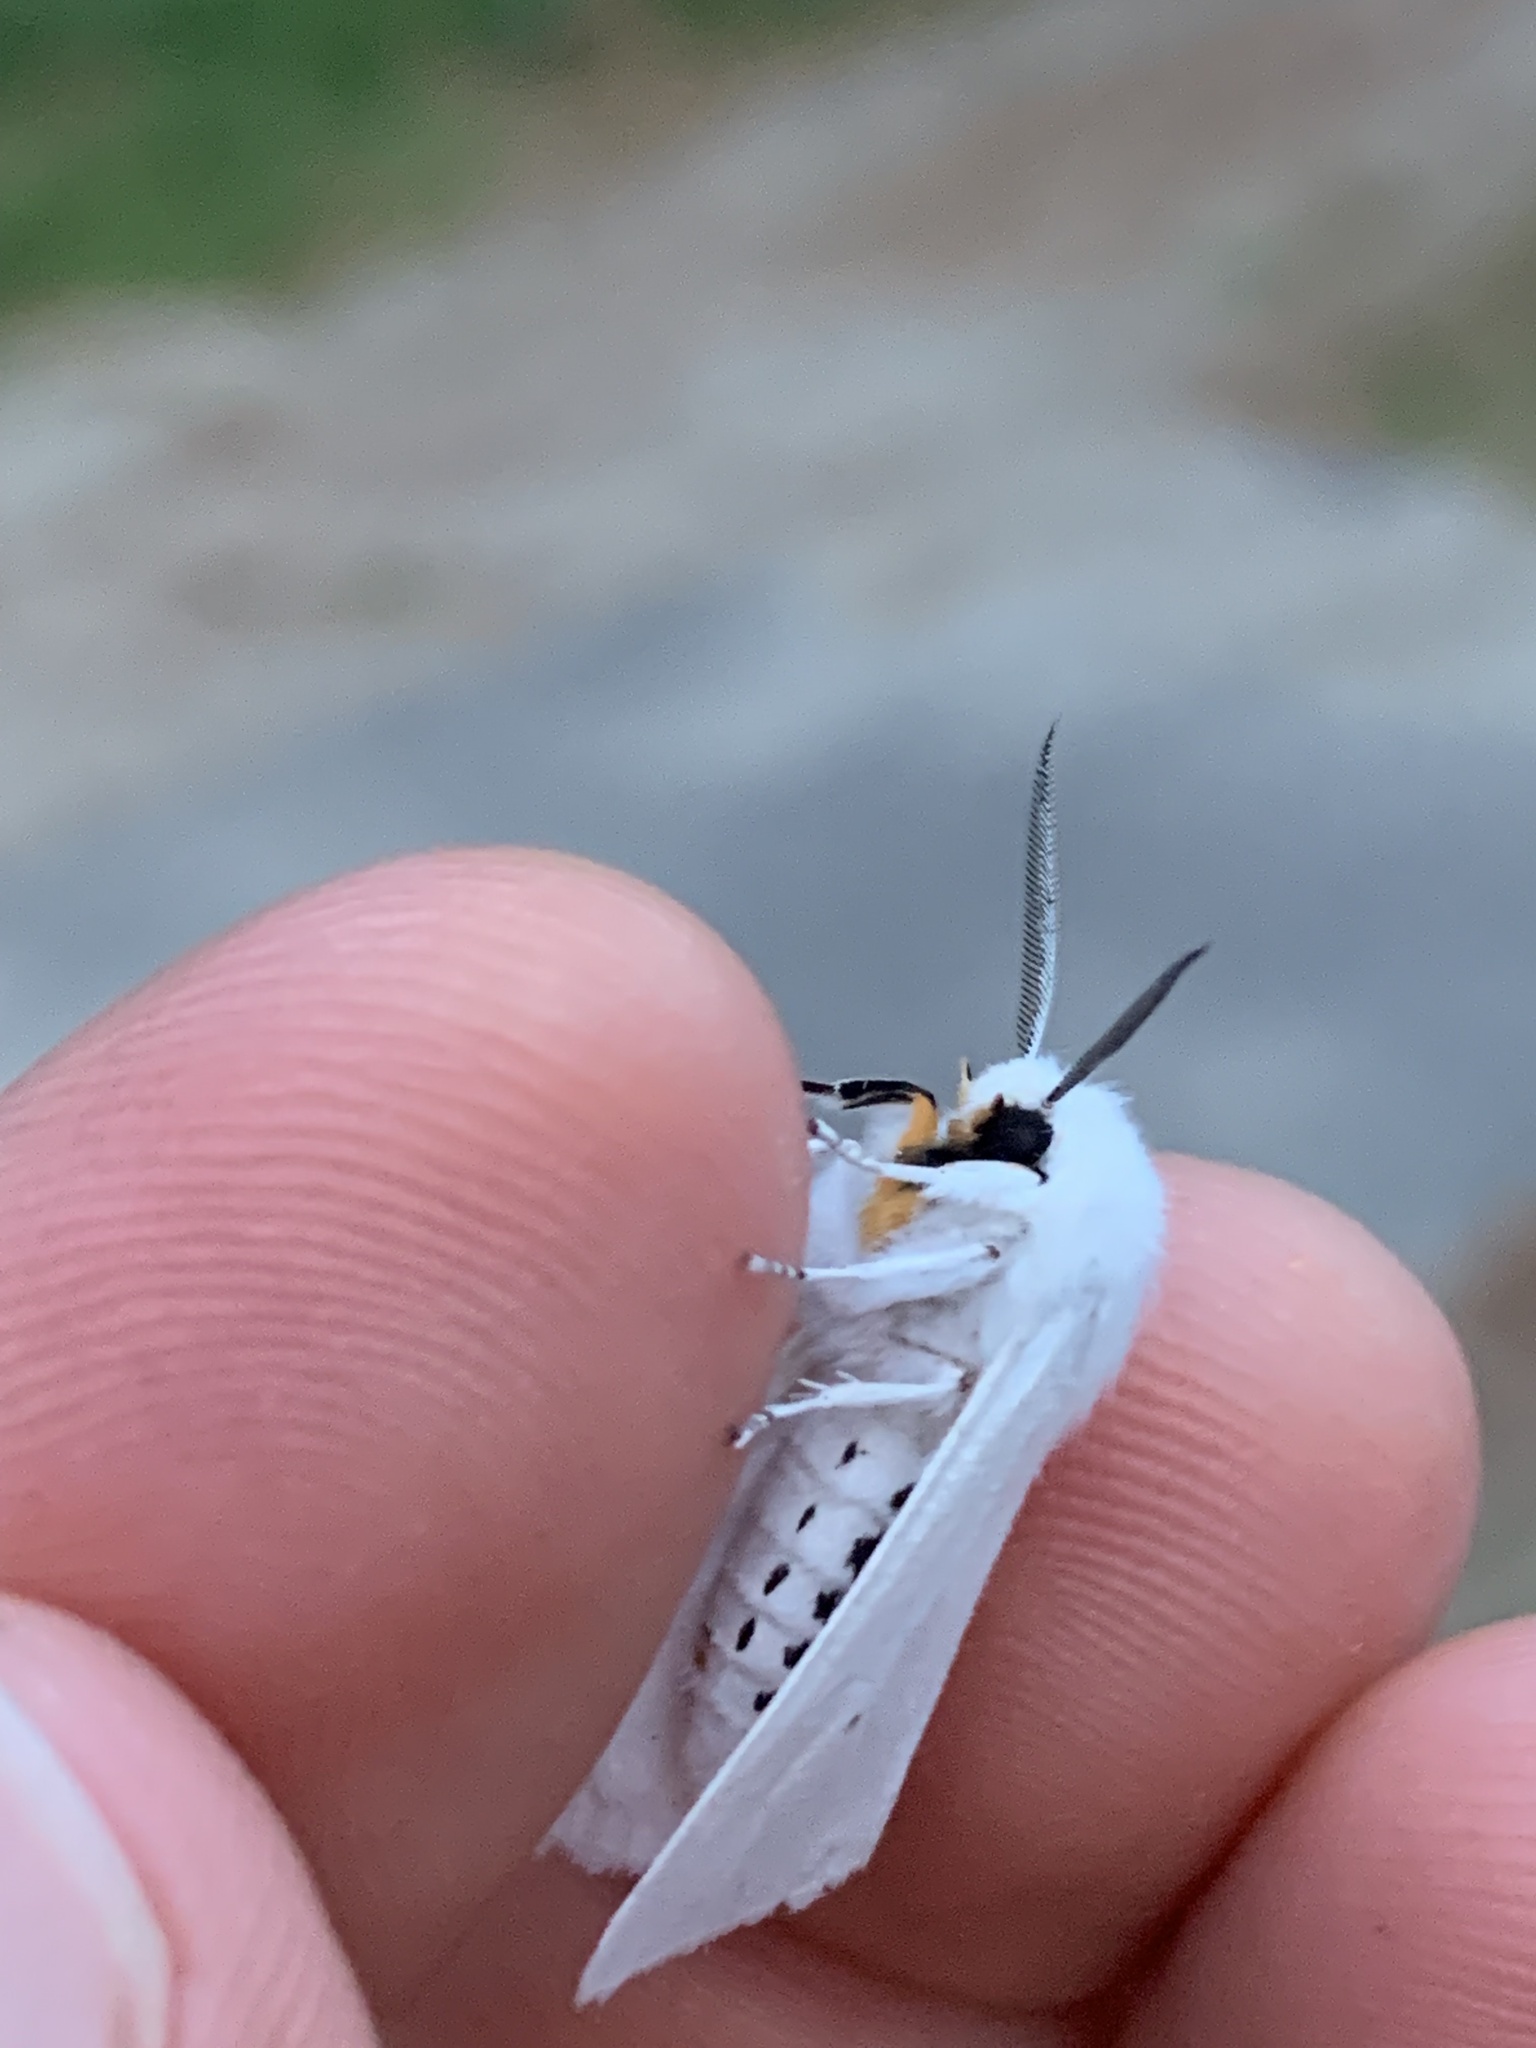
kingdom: Animalia
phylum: Arthropoda
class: Insecta
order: Lepidoptera
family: Erebidae
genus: Spilosoma
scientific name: Spilosoma congrua
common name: Agreeable tiger moth
